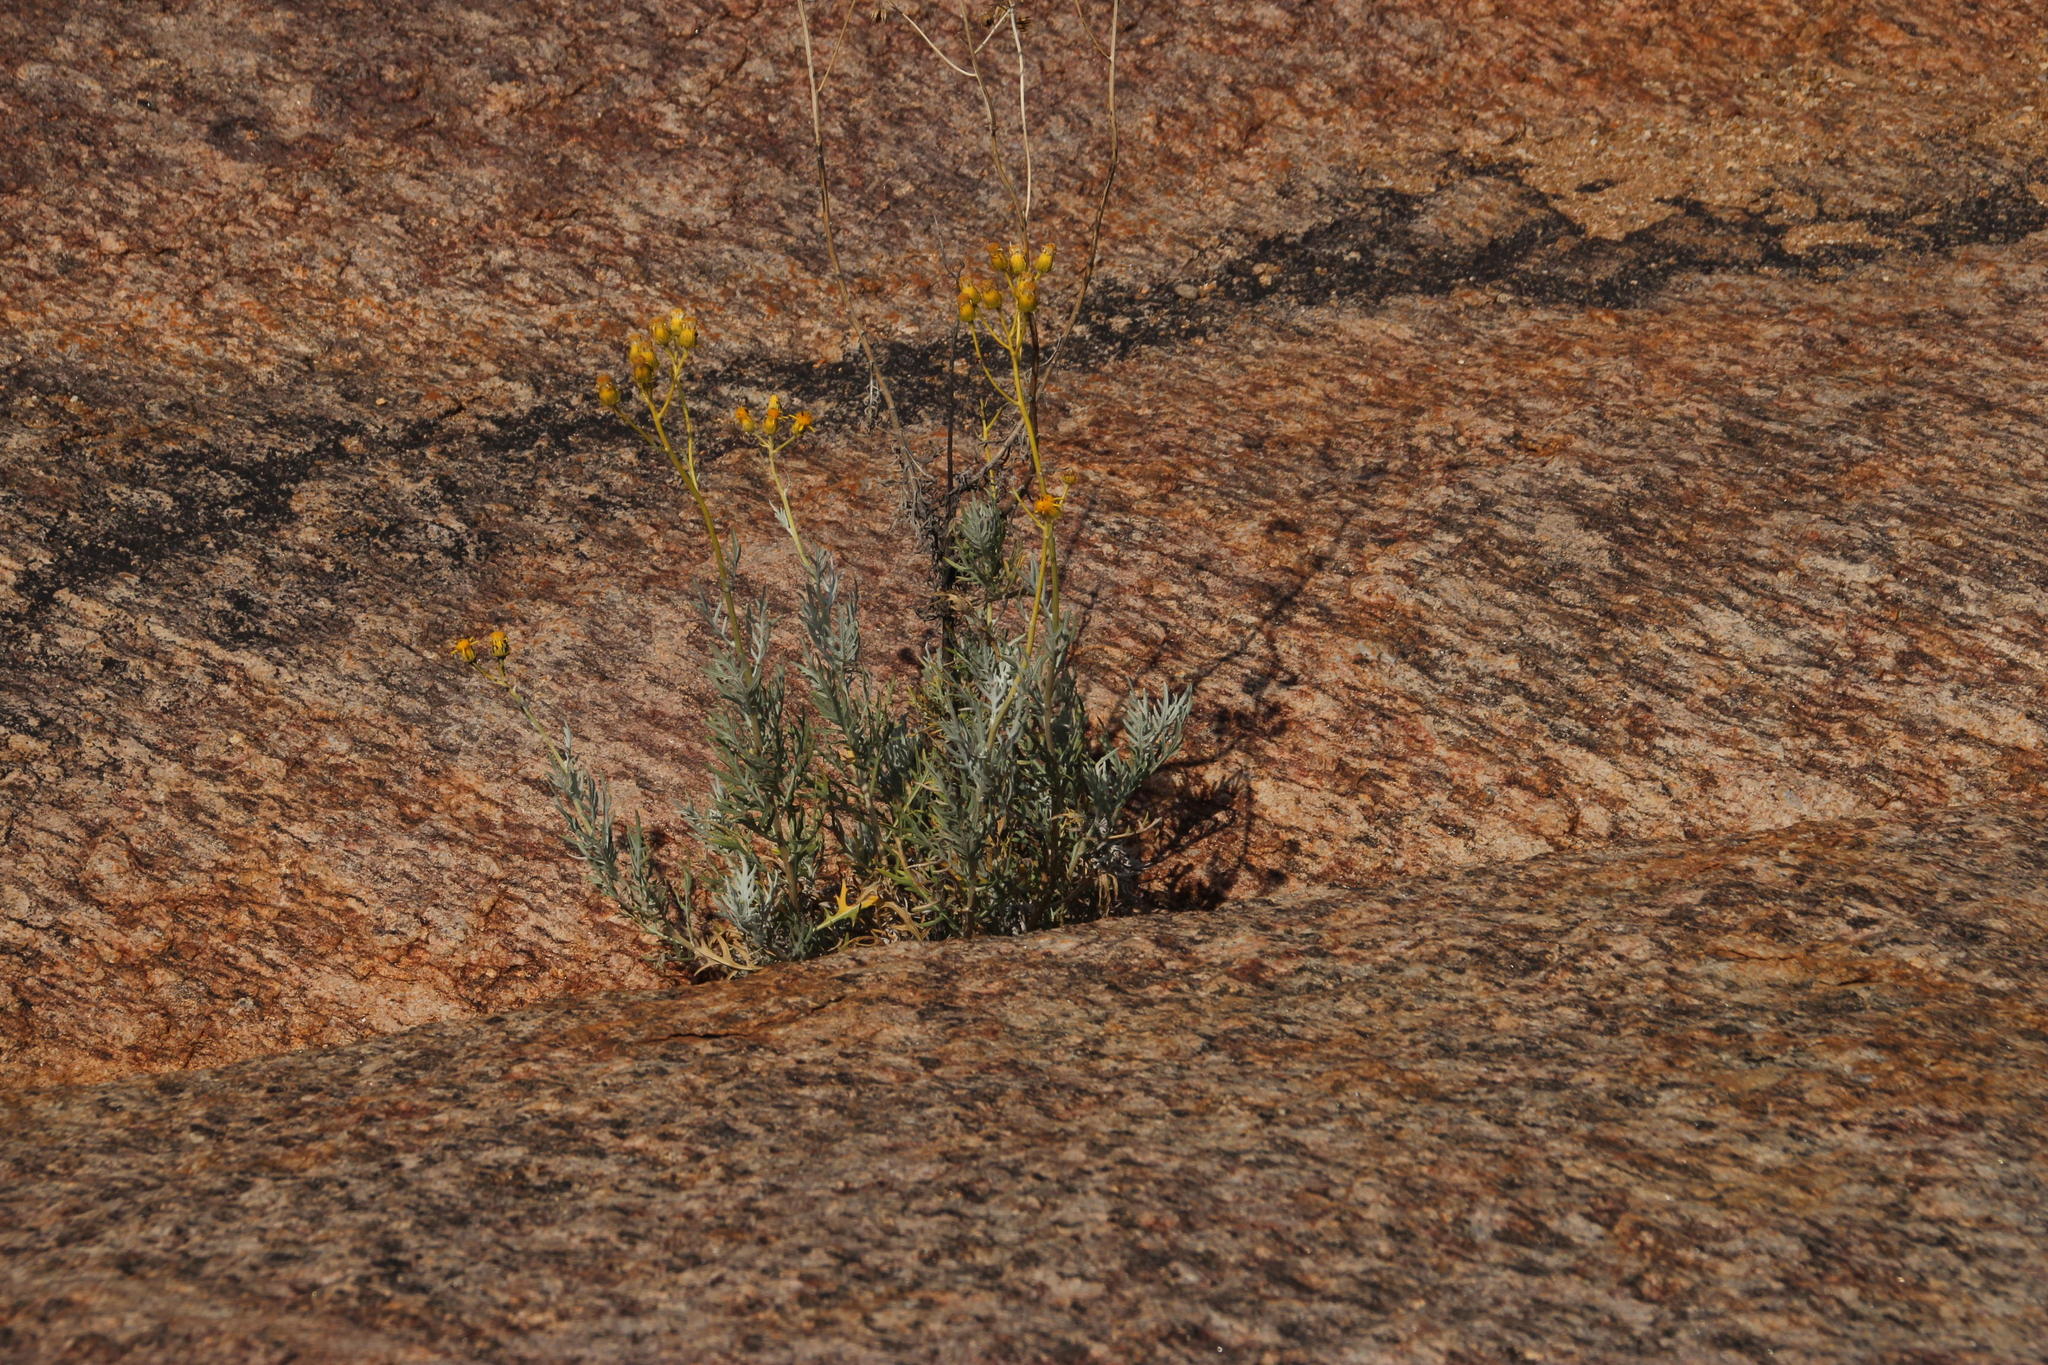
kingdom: Plantae
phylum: Tracheophyta
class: Magnoliopsida
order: Asterales
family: Asteraceae
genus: Senecio
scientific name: Senecio cinerascens
